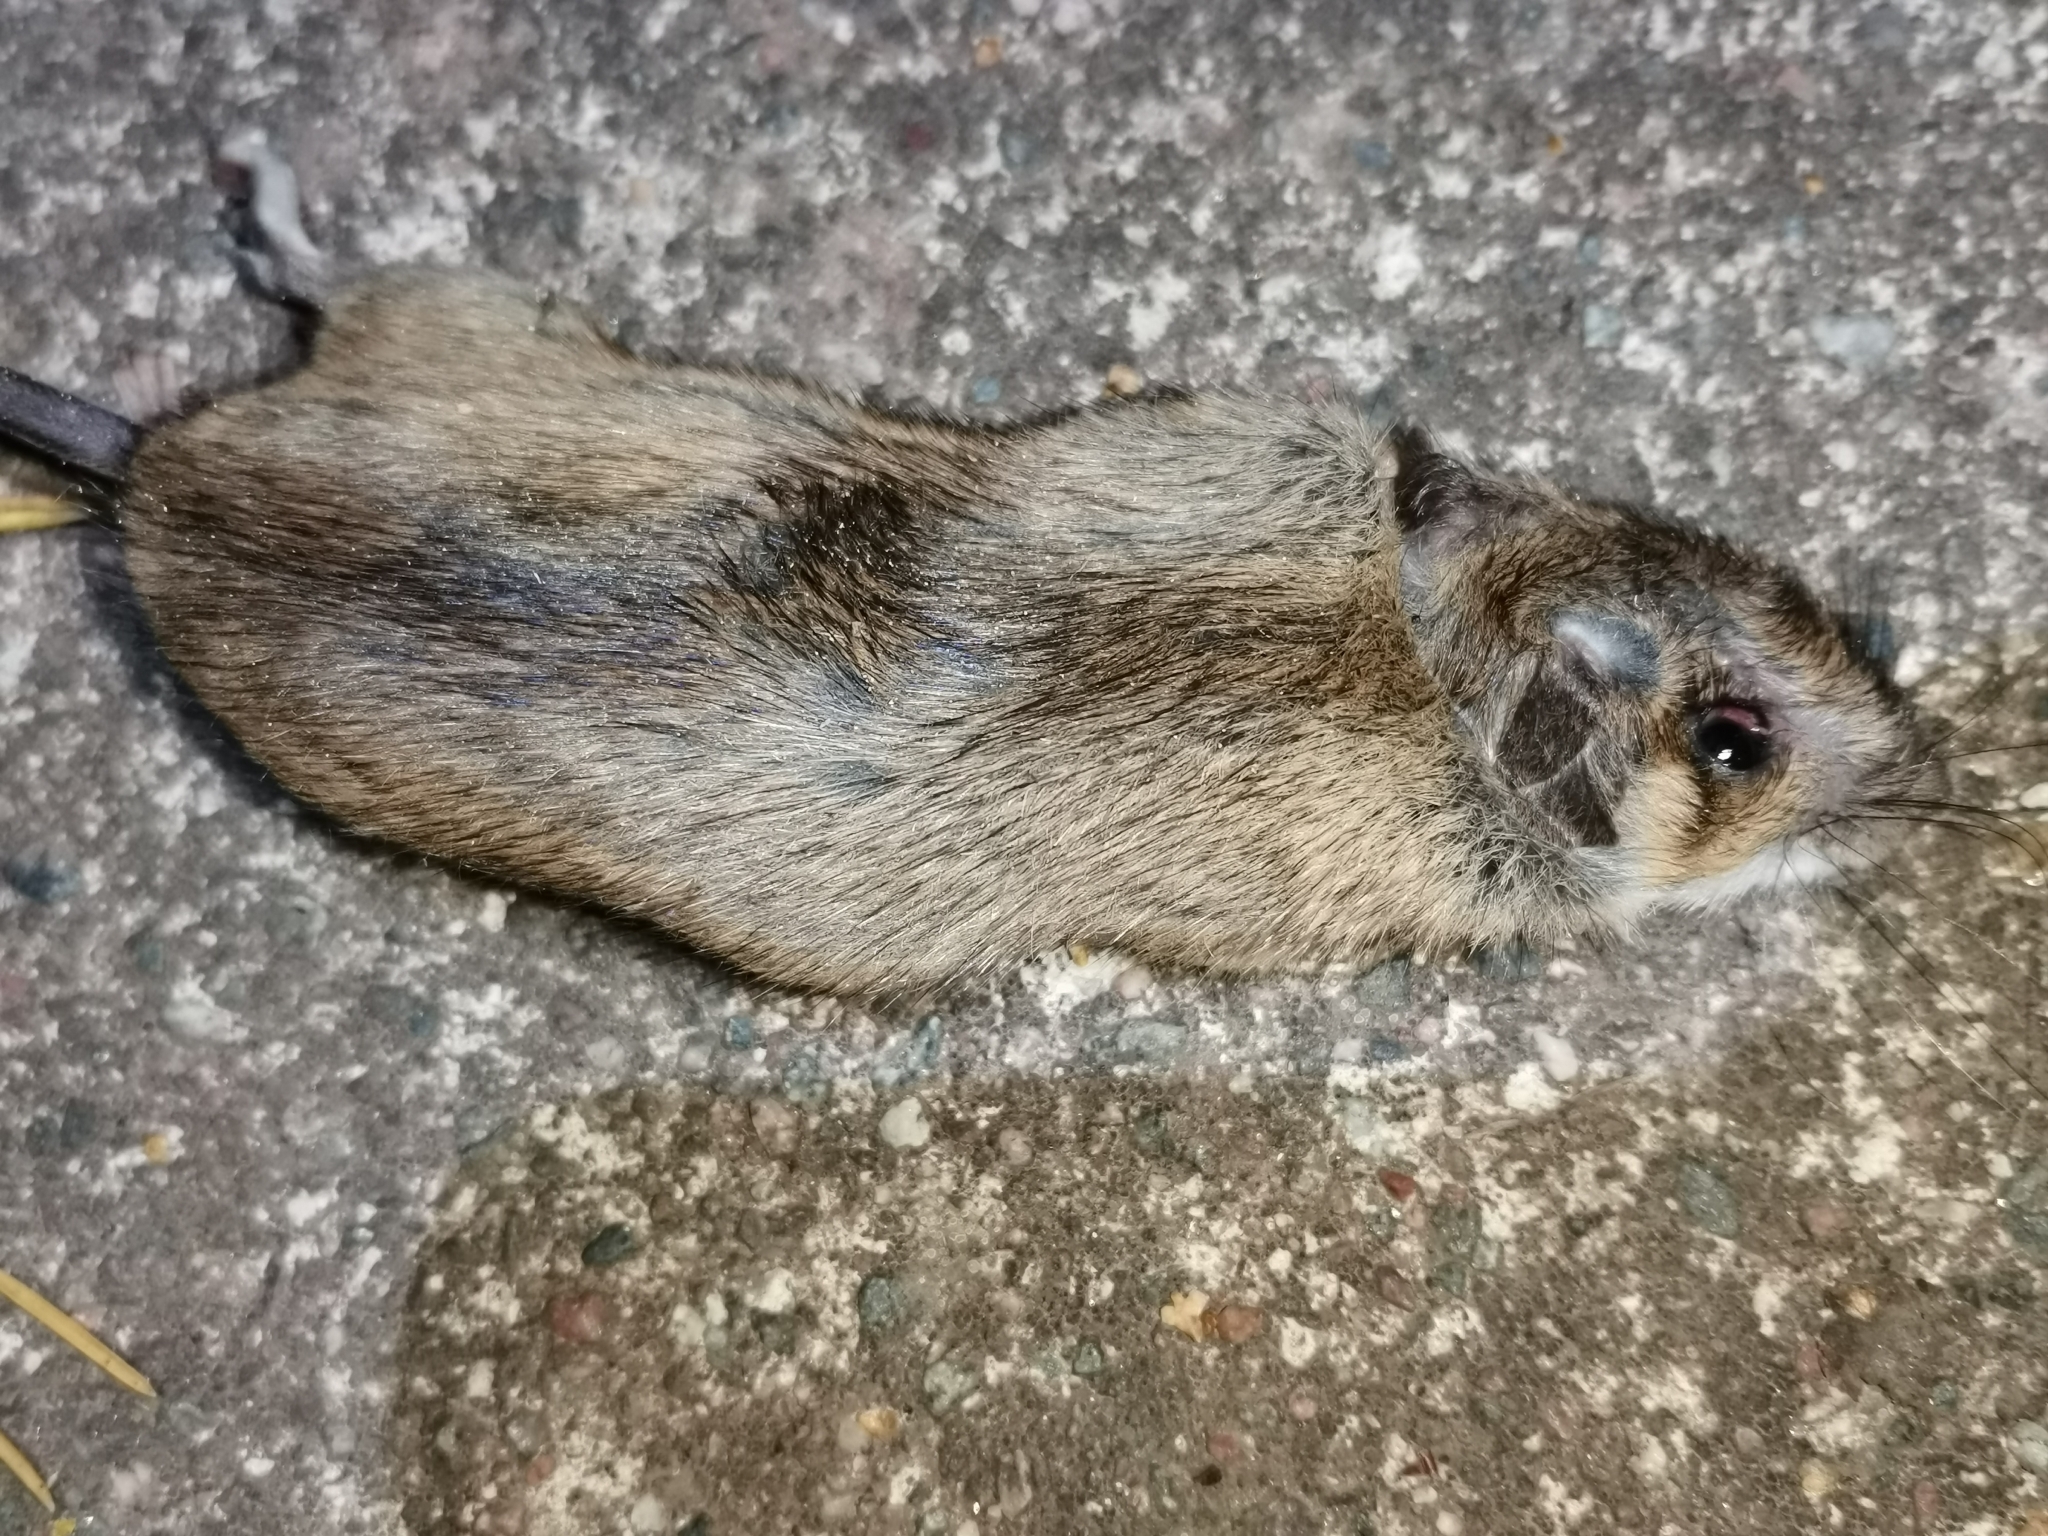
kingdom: Animalia
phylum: Chordata
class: Mammalia
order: Rodentia
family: Muridae
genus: Apodemus
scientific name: Apodemus flavicollis
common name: Yellow-necked field mouse
